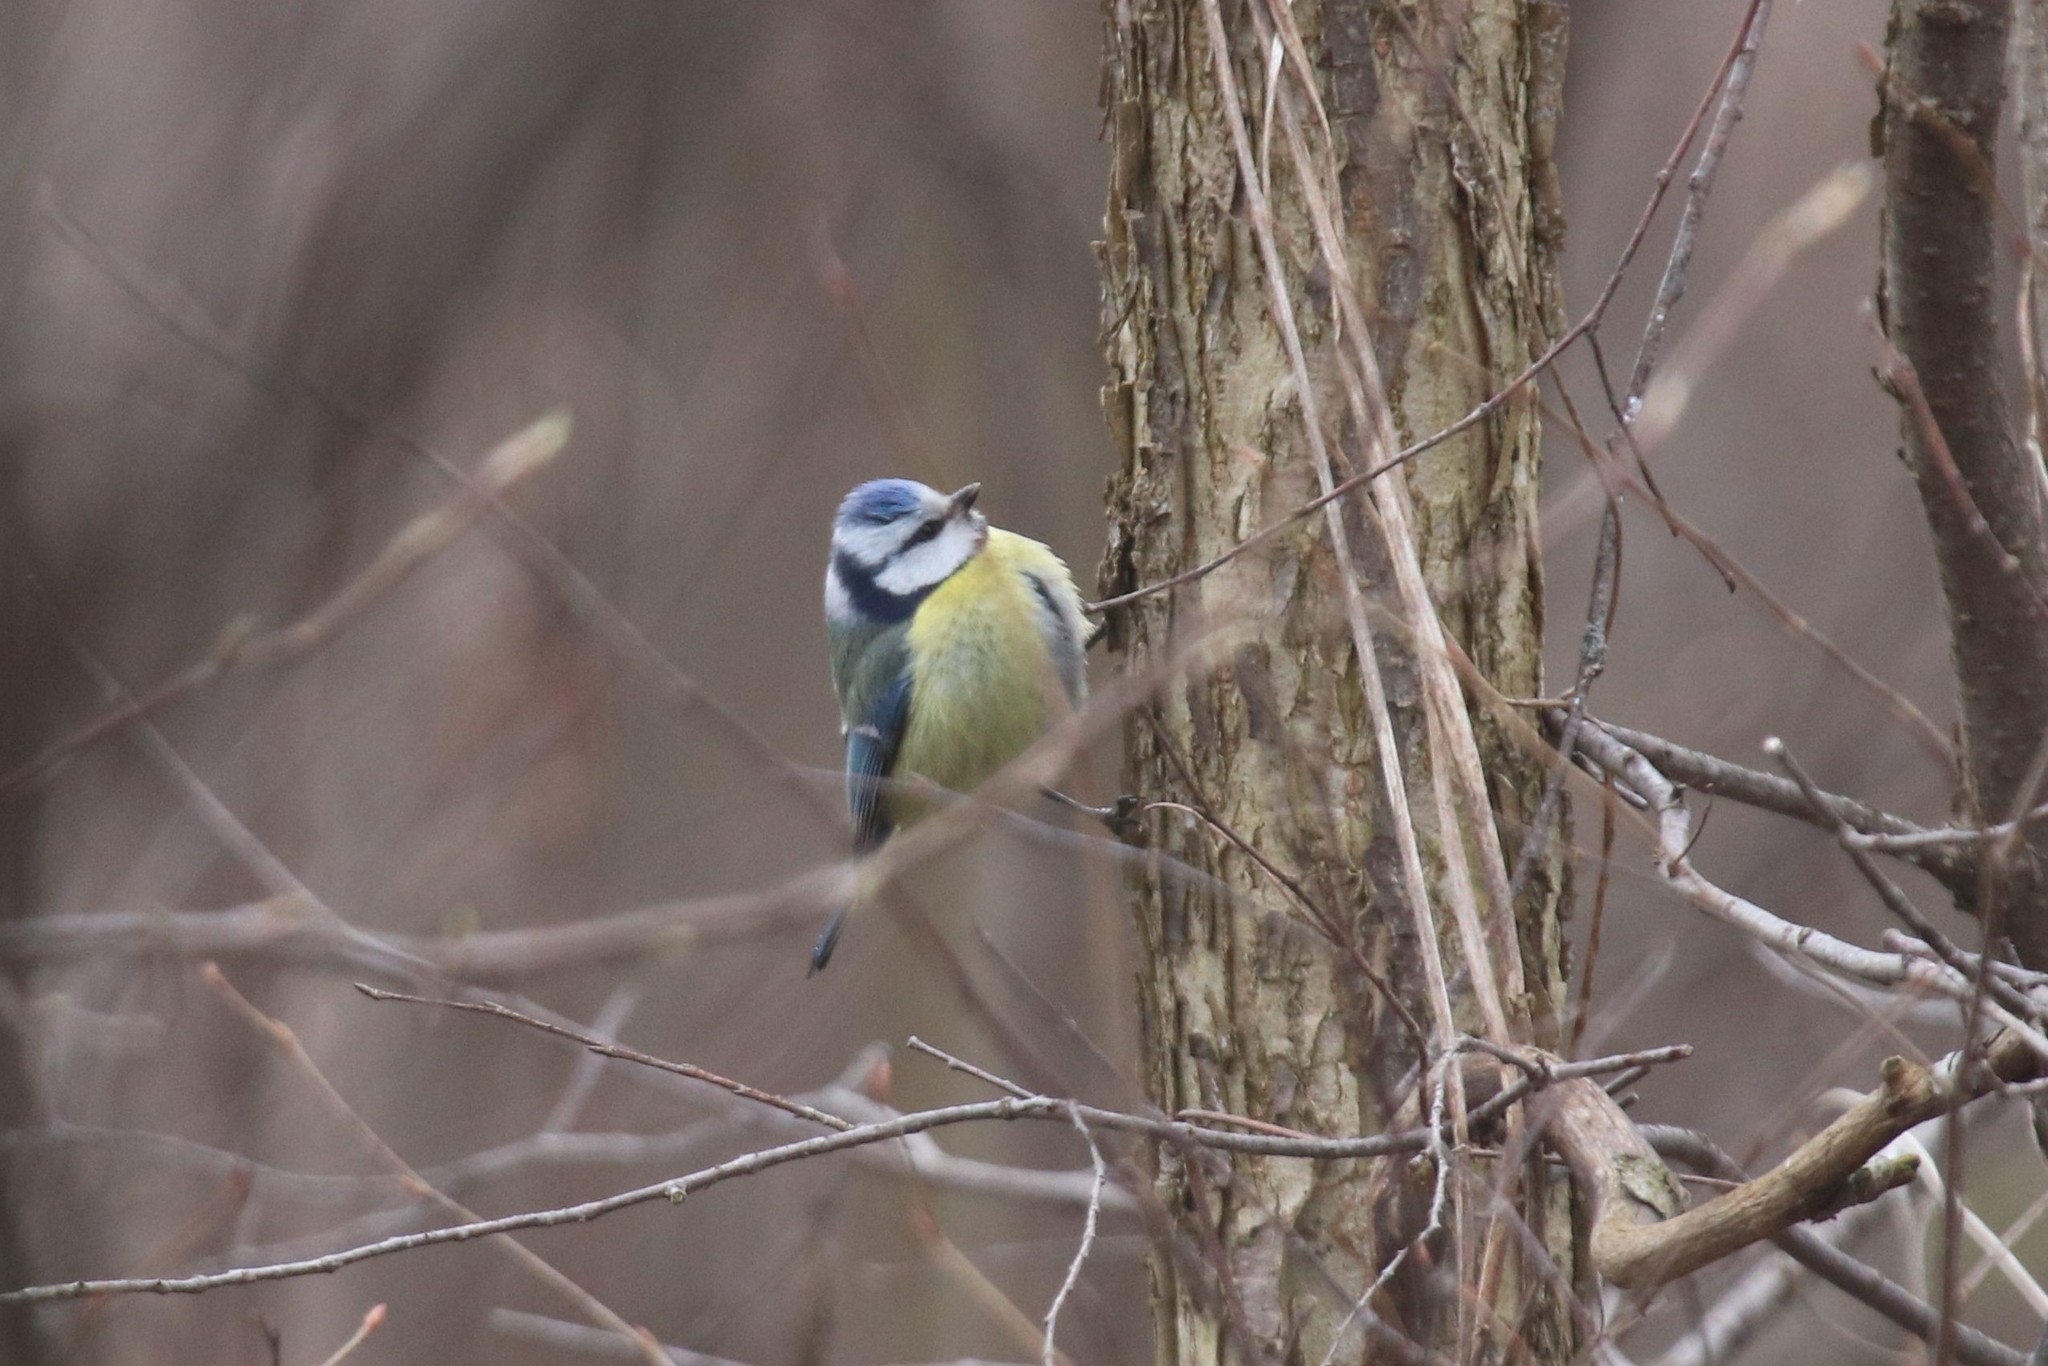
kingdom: Animalia
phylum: Chordata
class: Aves
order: Passeriformes
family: Paridae
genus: Cyanistes
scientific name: Cyanistes caeruleus
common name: Eurasian blue tit
